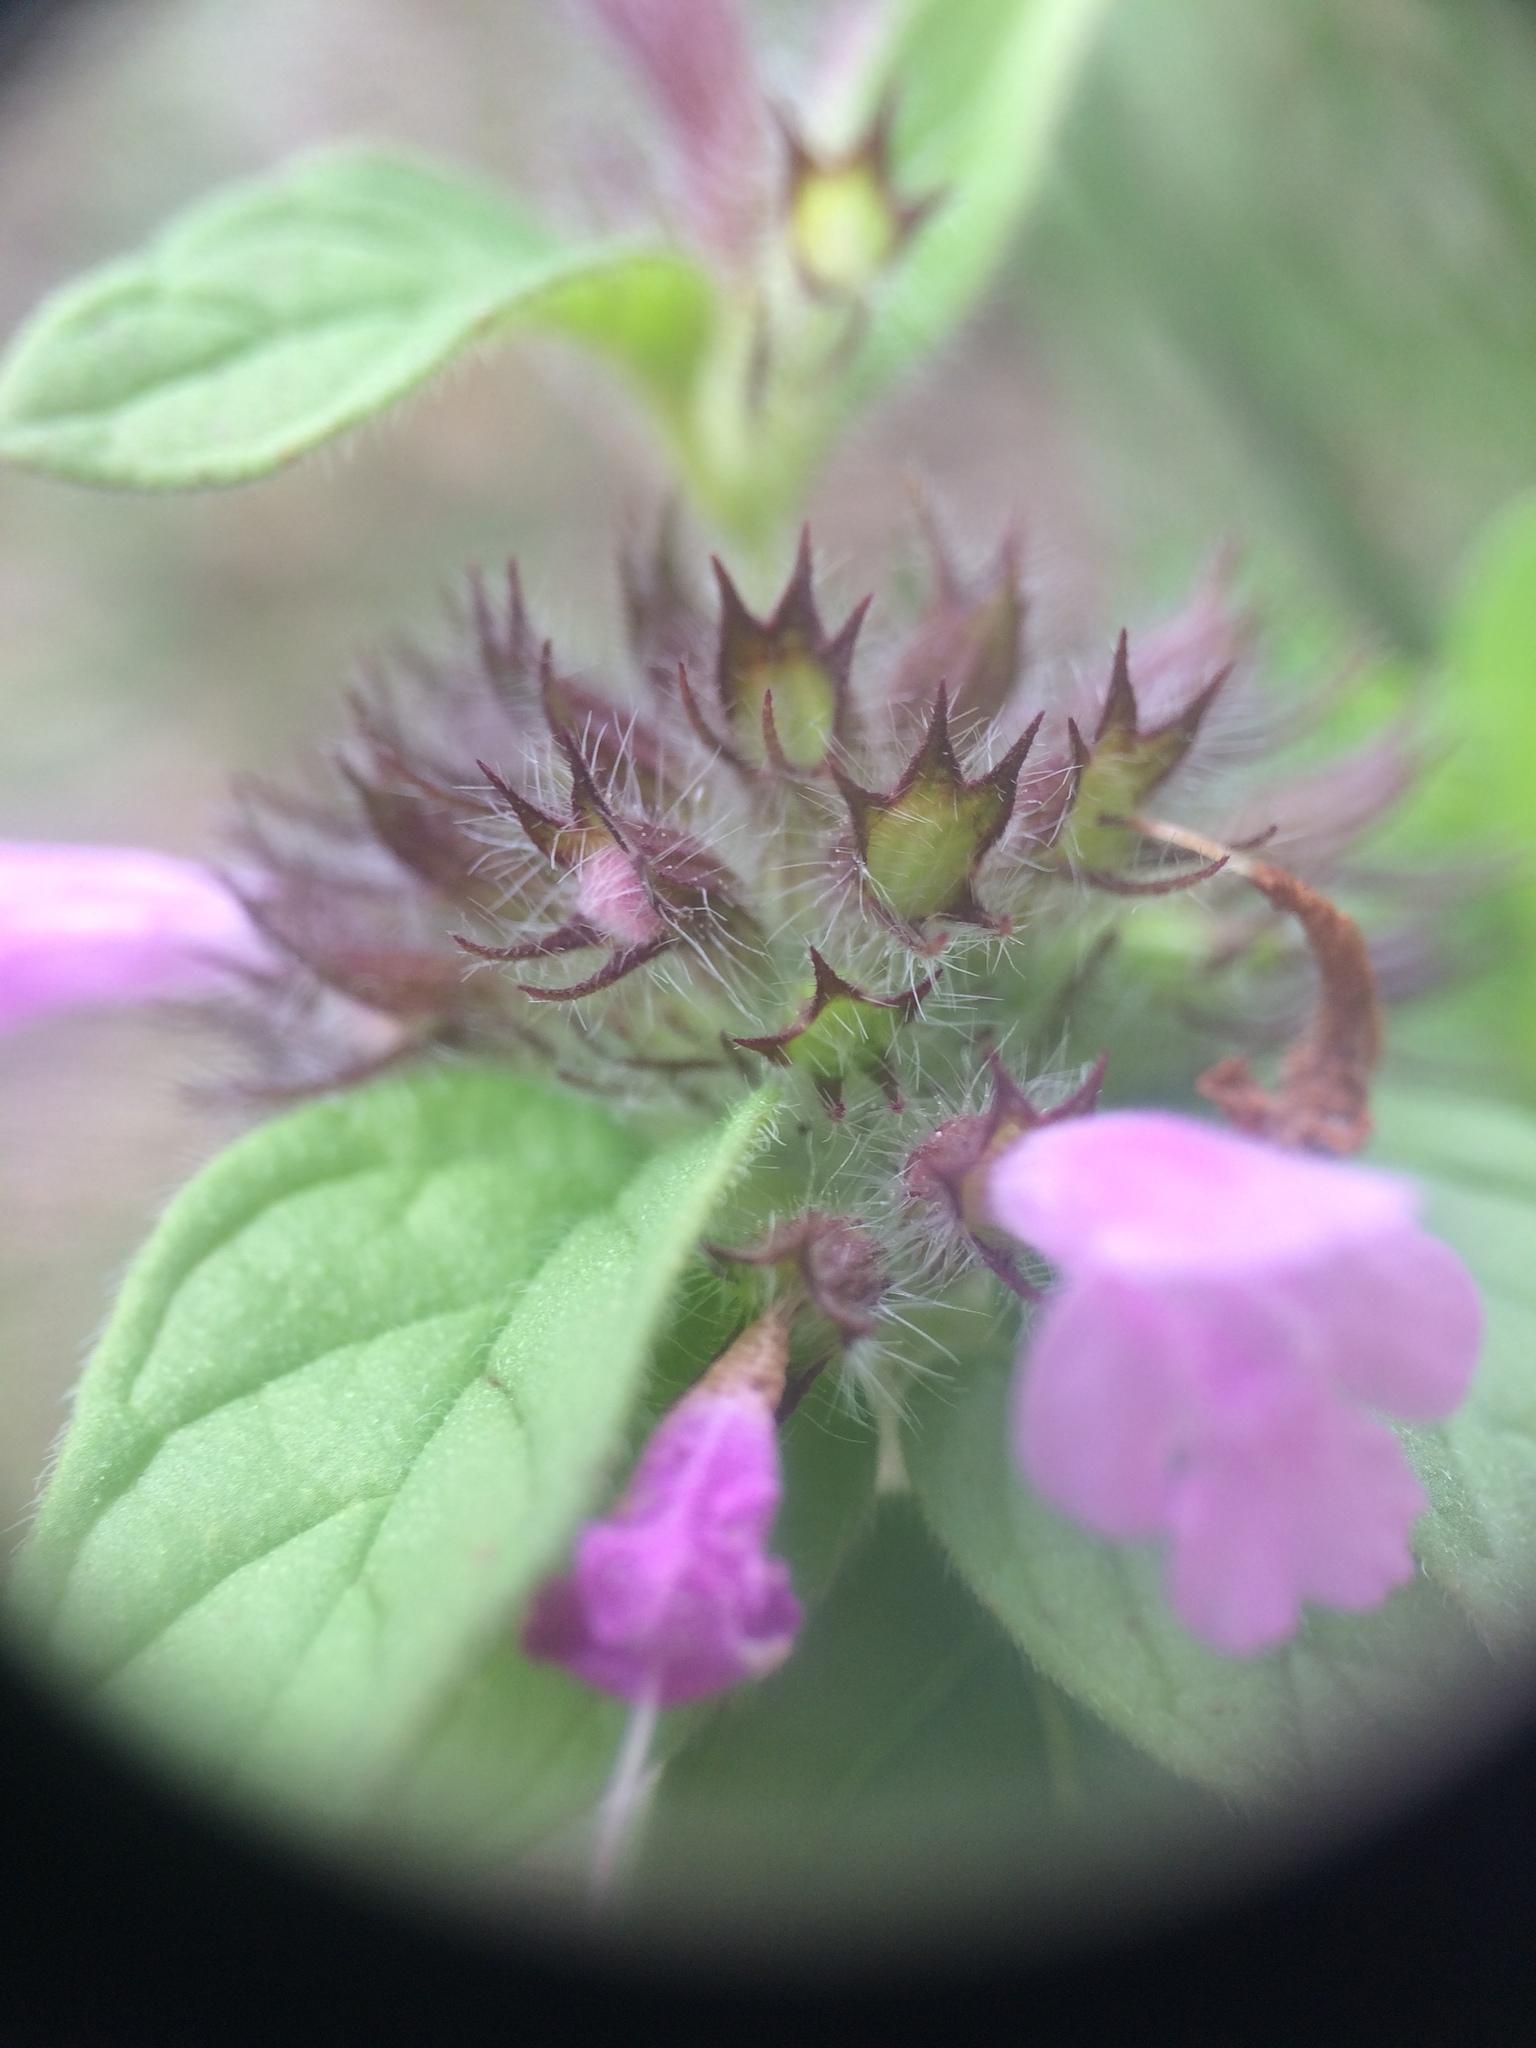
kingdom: Plantae
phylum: Tracheophyta
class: Magnoliopsida
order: Lamiales
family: Lamiaceae
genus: Clinopodium
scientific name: Clinopodium vulgare
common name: Wild basil
